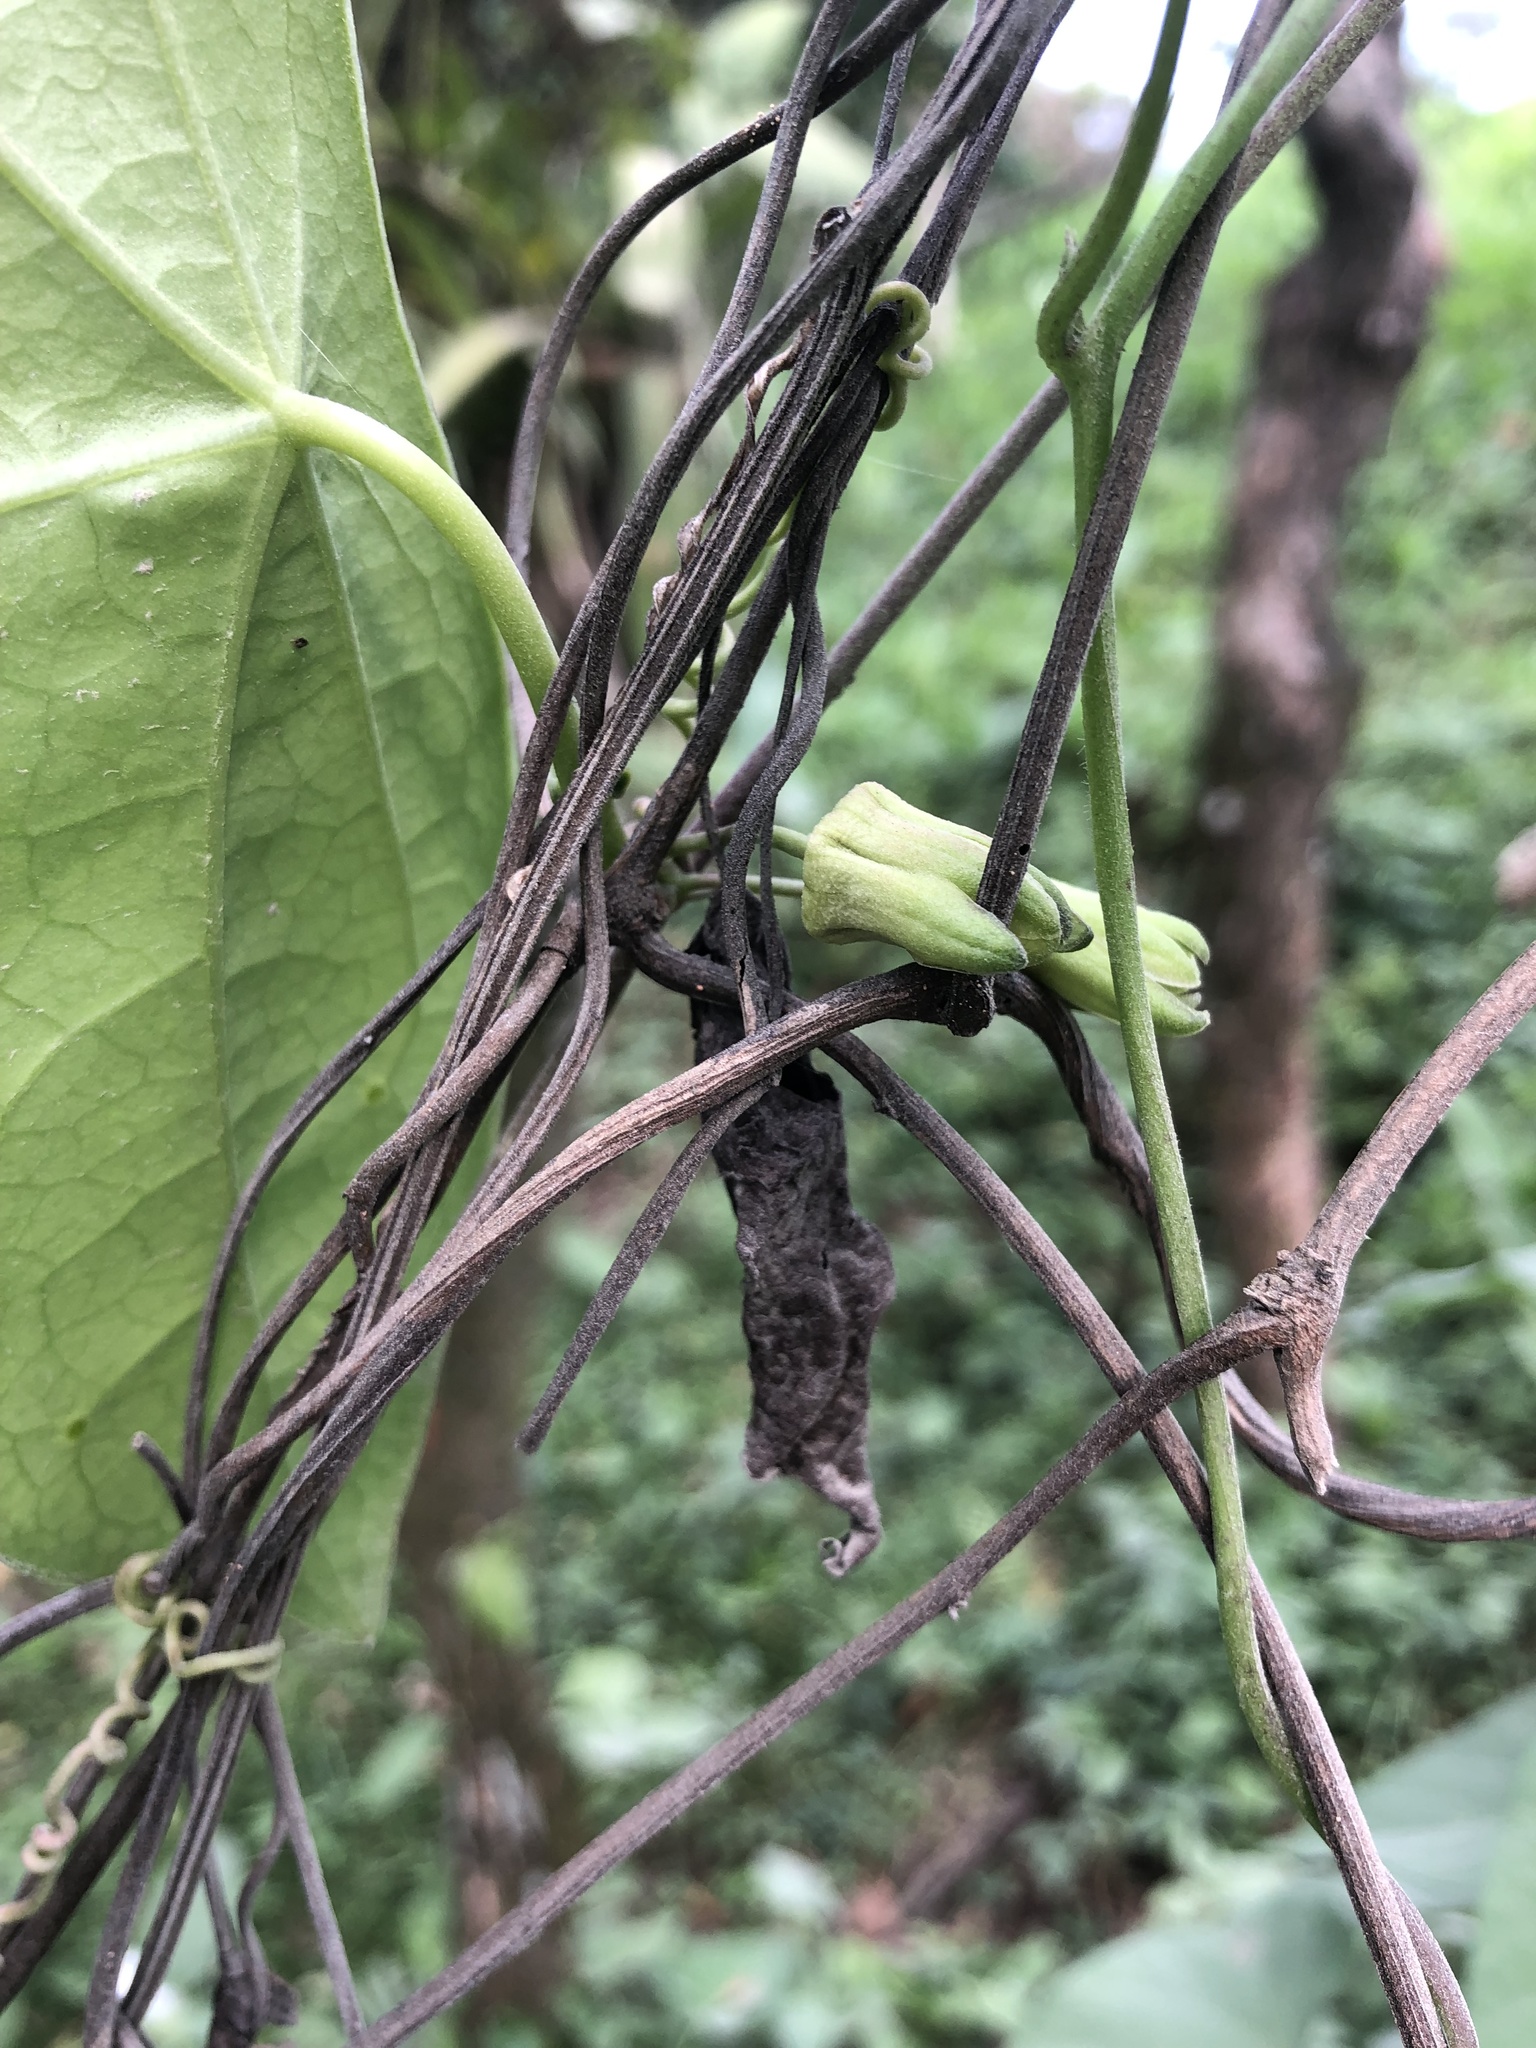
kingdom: Plantae
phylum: Tracheophyta
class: Magnoliopsida
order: Malpighiales
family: Passifloraceae
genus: Passiflora
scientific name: Passiflora sexocellata
